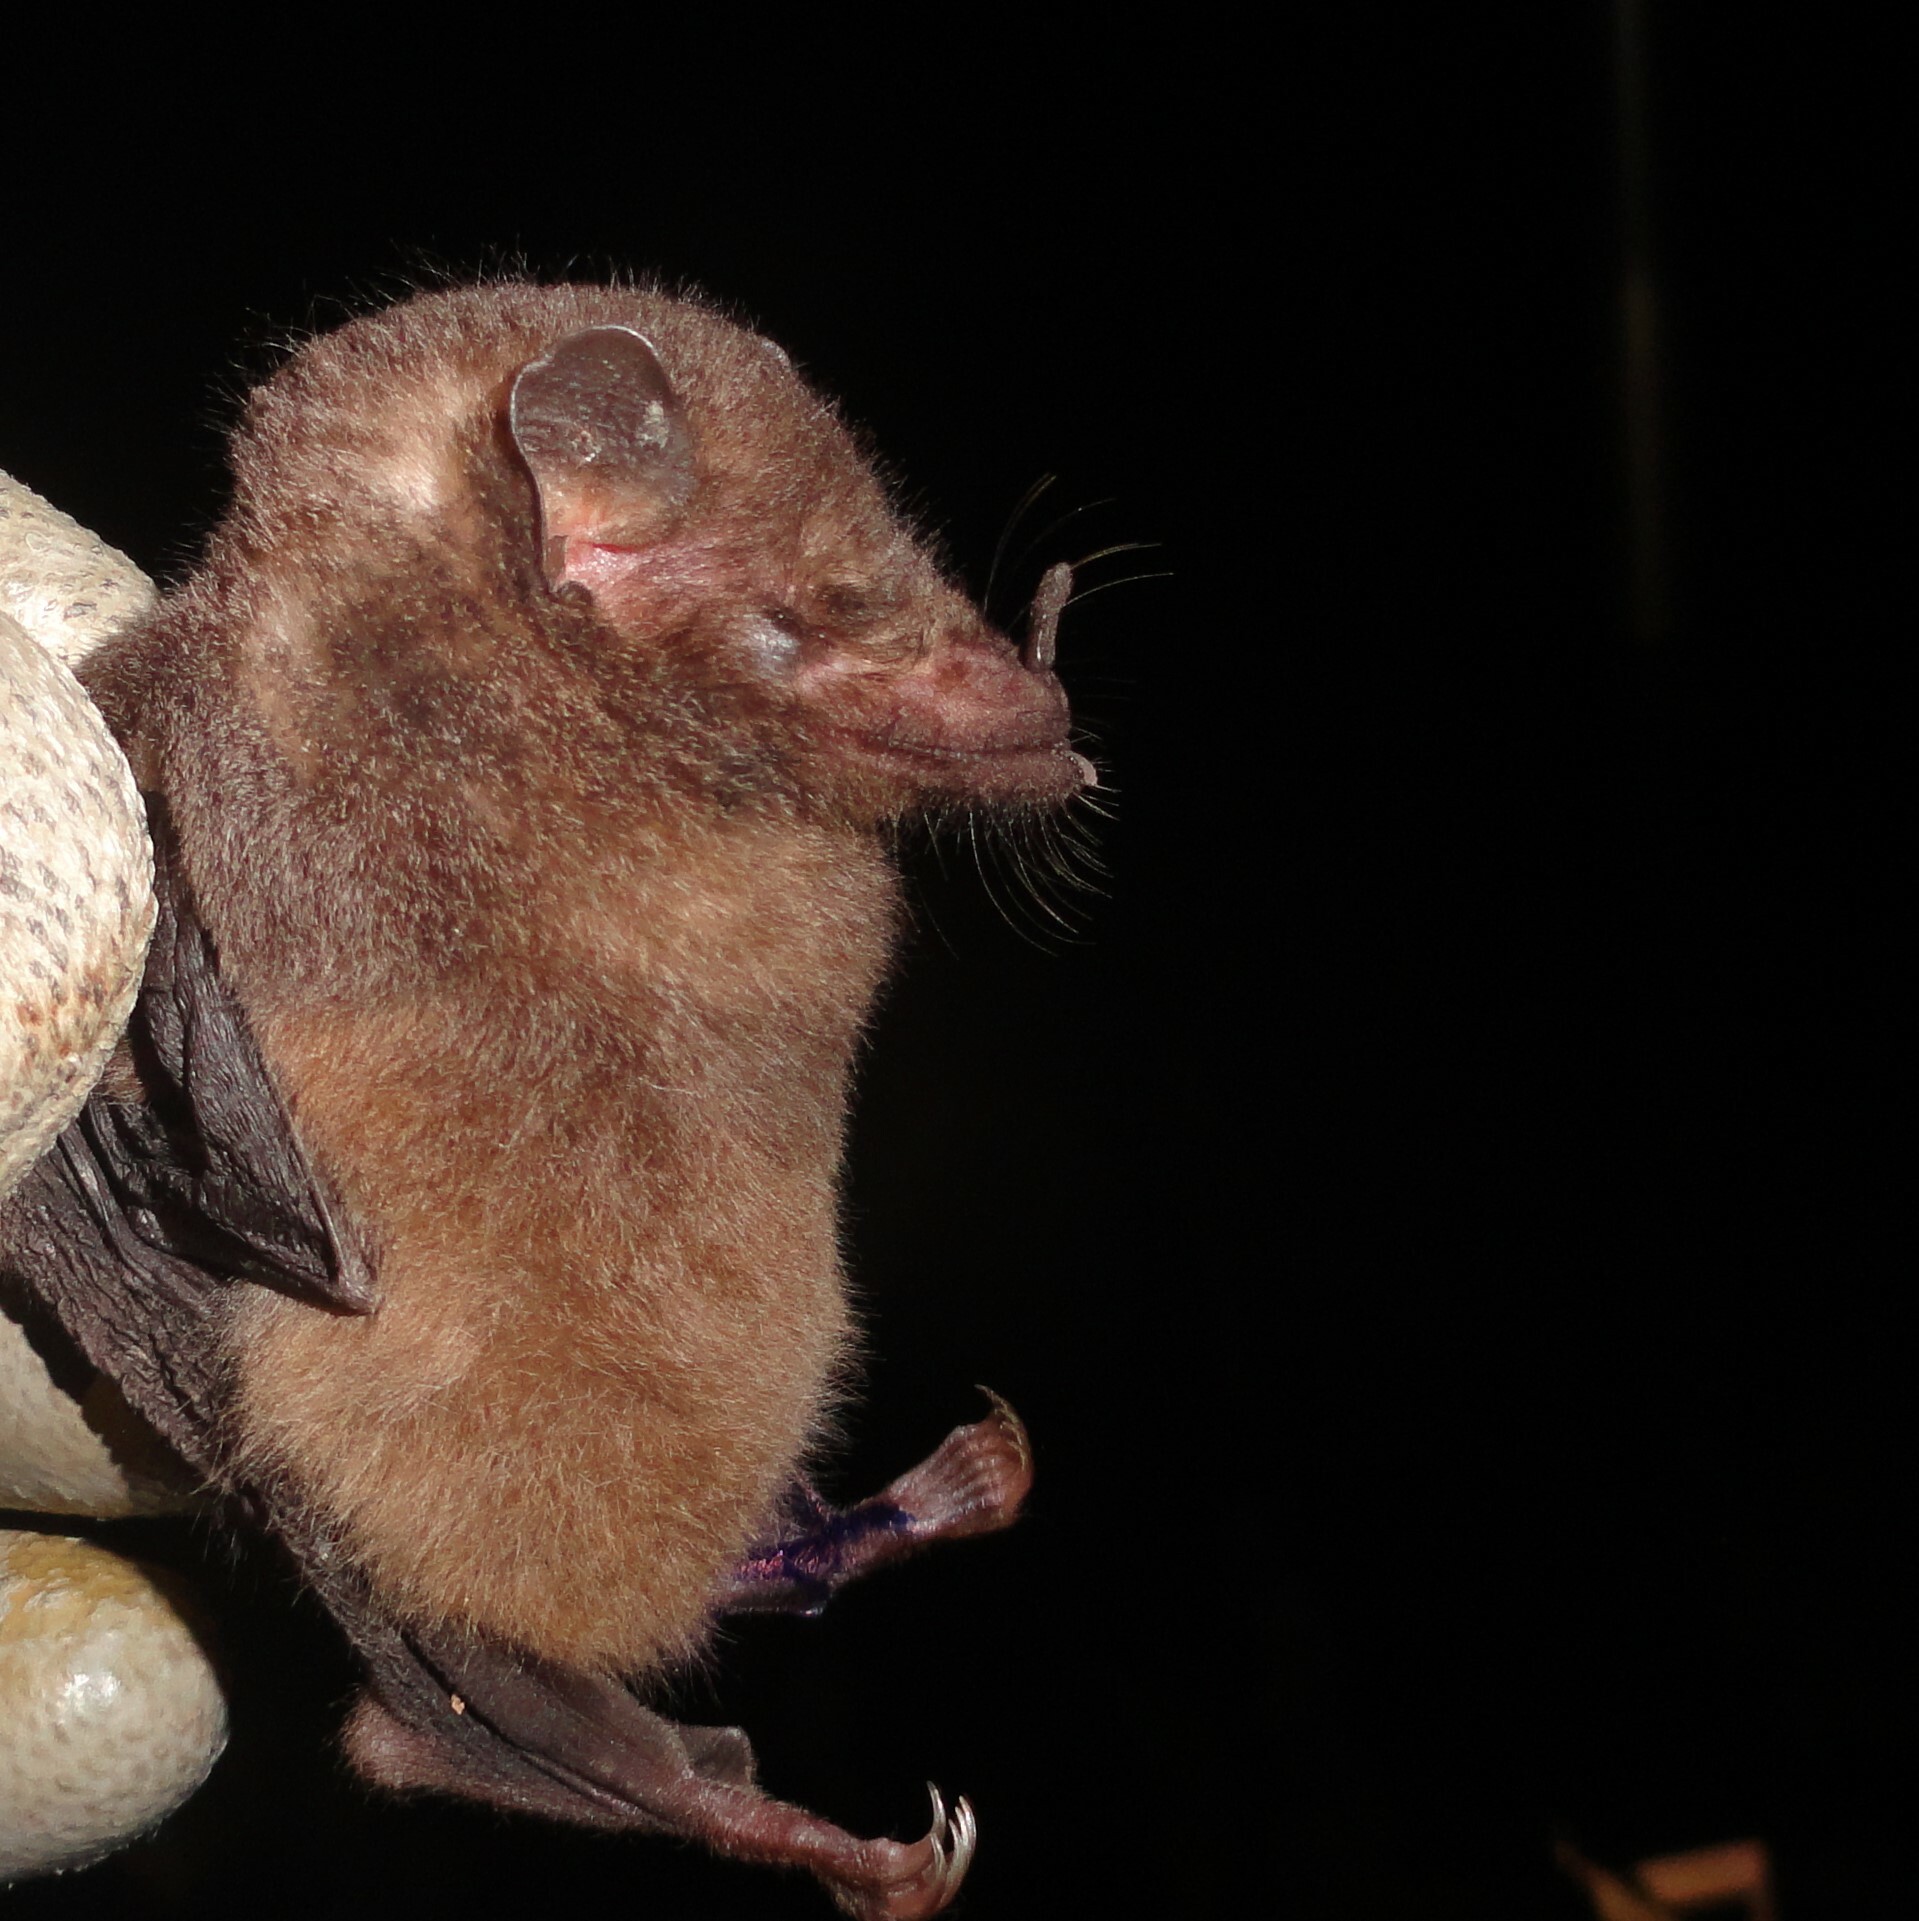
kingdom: Animalia
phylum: Chordata
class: Mammalia
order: Chiroptera
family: Phyllostomidae
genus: Anoura
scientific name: Anoura caudifer
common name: Tailed tailless bat
